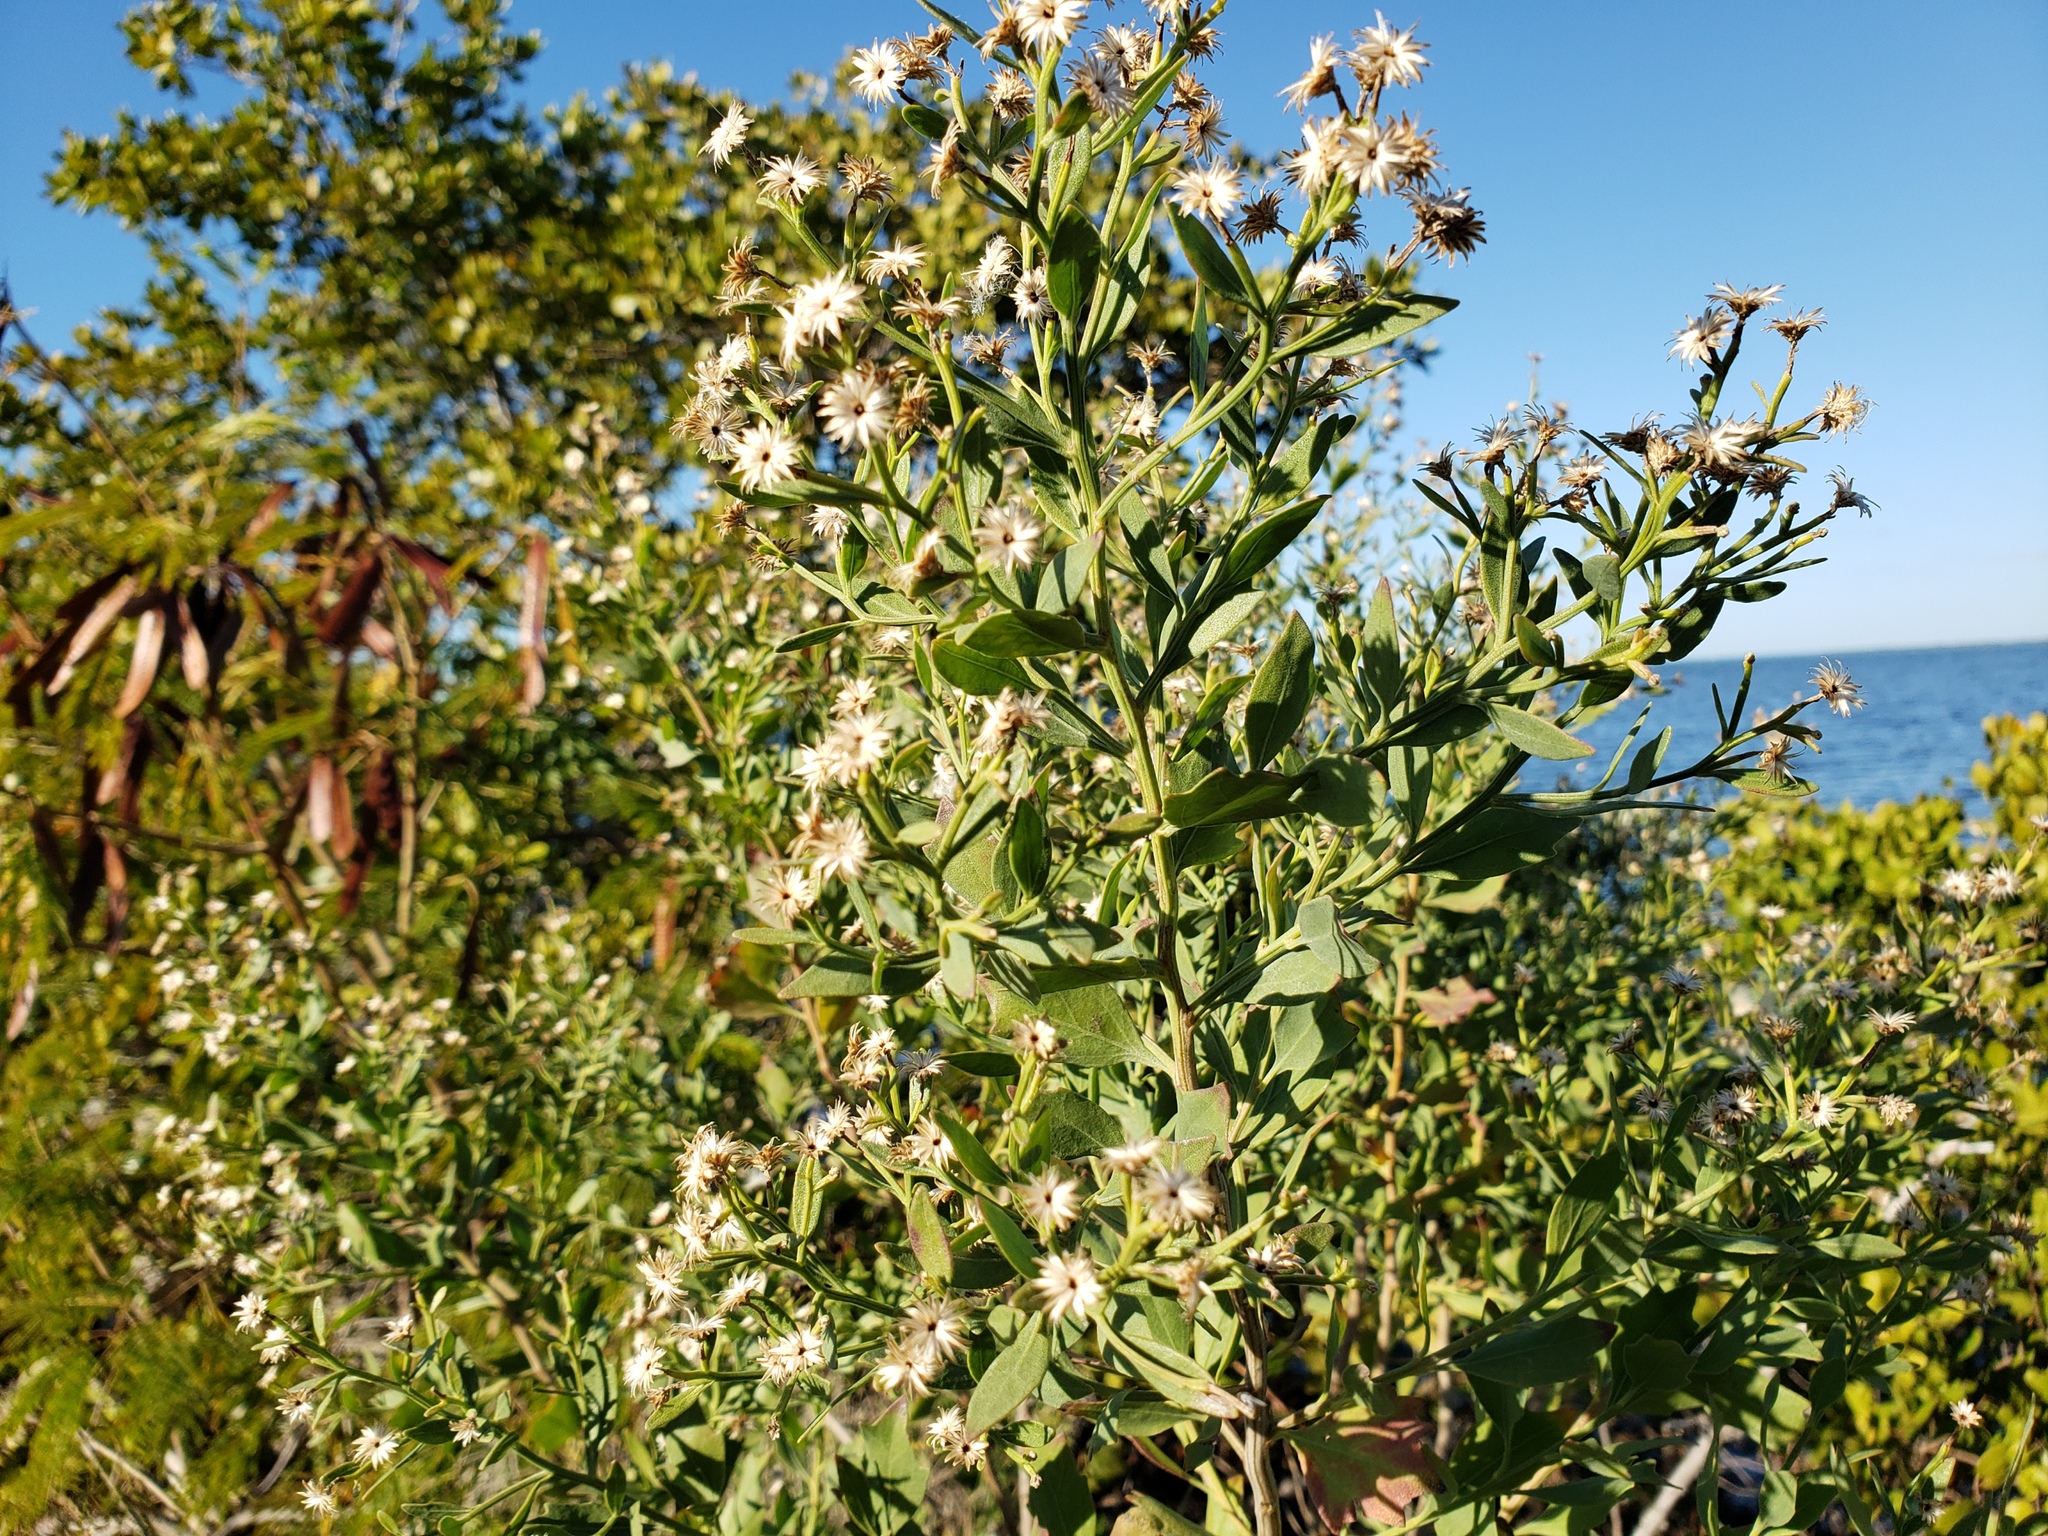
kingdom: Plantae
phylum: Tracheophyta
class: Magnoliopsida
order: Asterales
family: Asteraceae
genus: Baccharis
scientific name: Baccharis halimifolia
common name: Eastern baccharis
